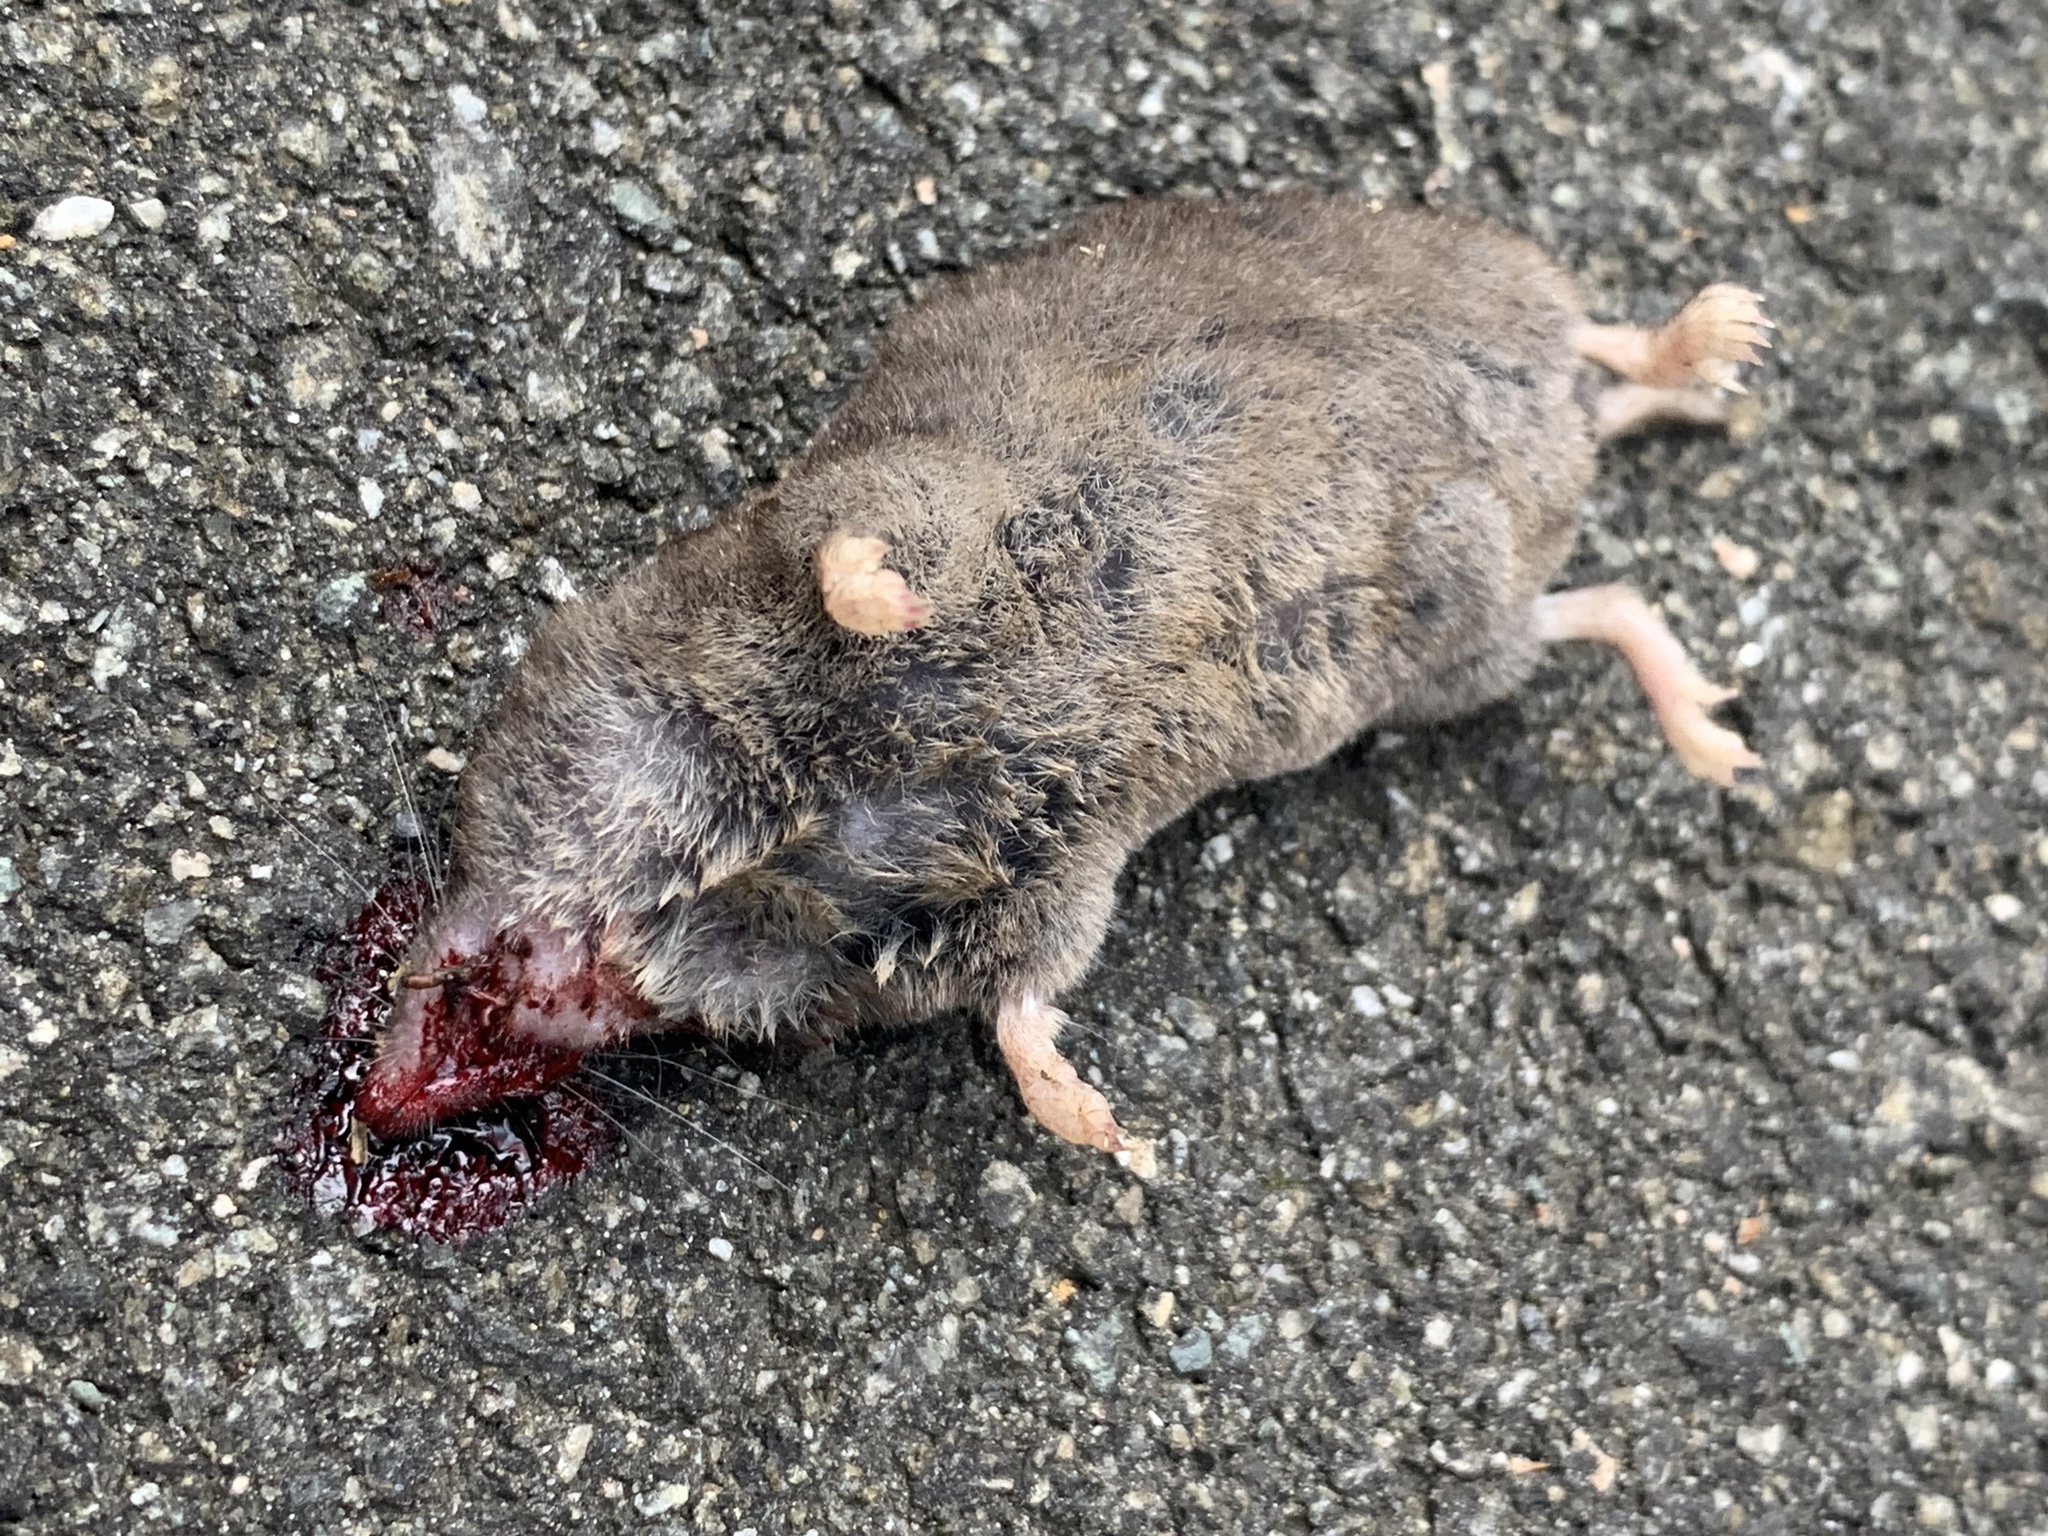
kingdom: Animalia
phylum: Chordata
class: Mammalia
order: Soricomorpha
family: Soricidae
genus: Blarina
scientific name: Blarina carolinensis
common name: Southern short-tailed shrew
